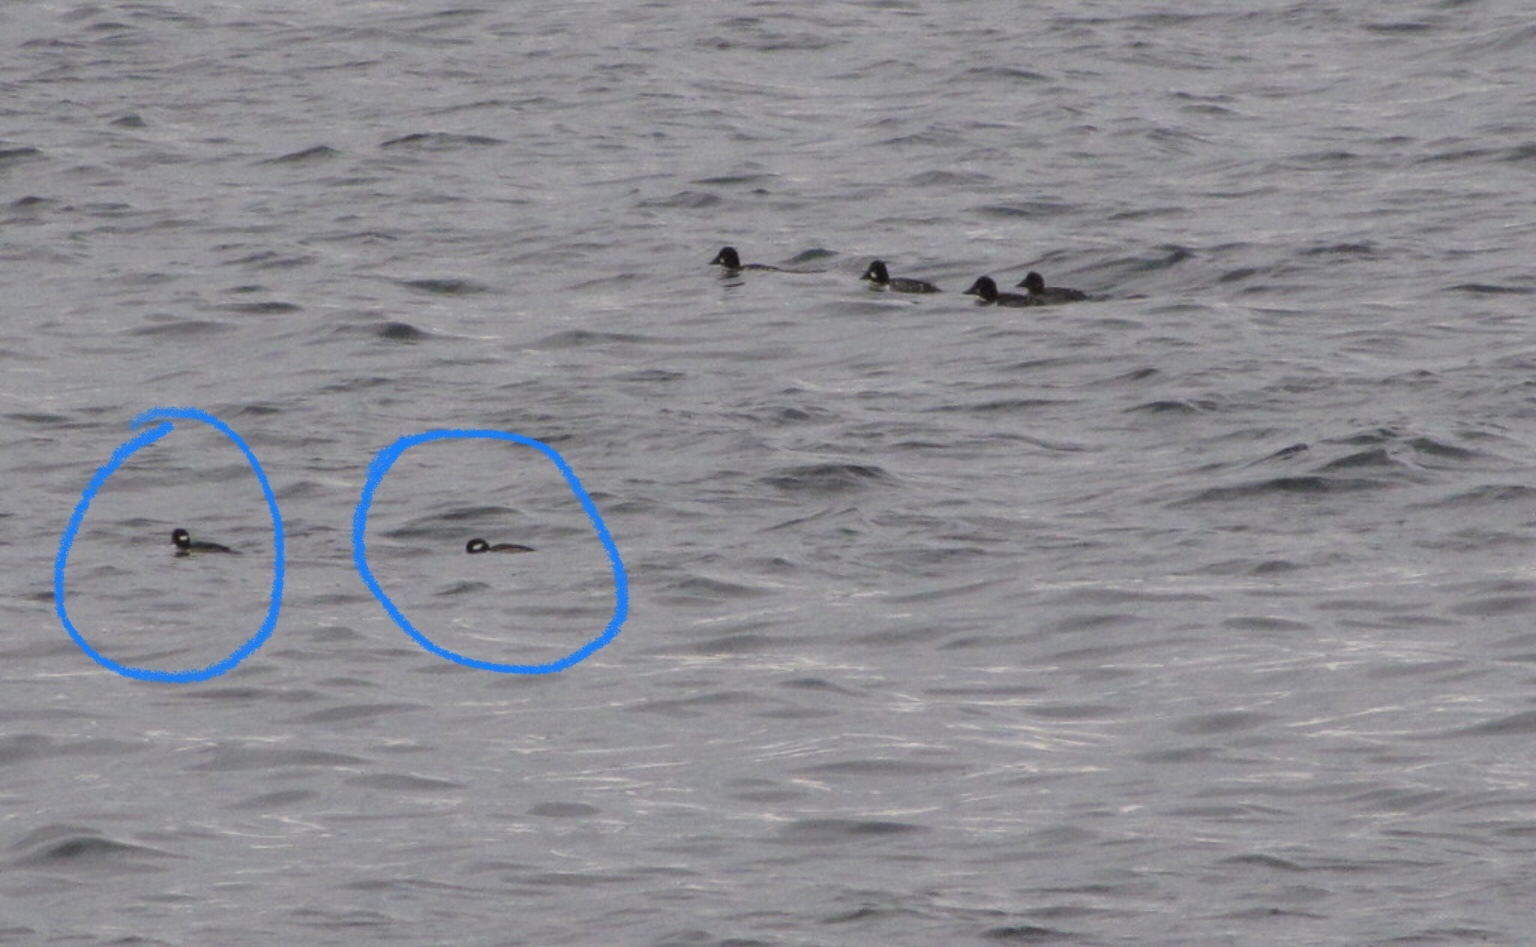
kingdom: Animalia
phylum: Chordata
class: Aves
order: Anseriformes
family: Anatidae
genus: Bucephala
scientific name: Bucephala albeola
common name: Bufflehead
